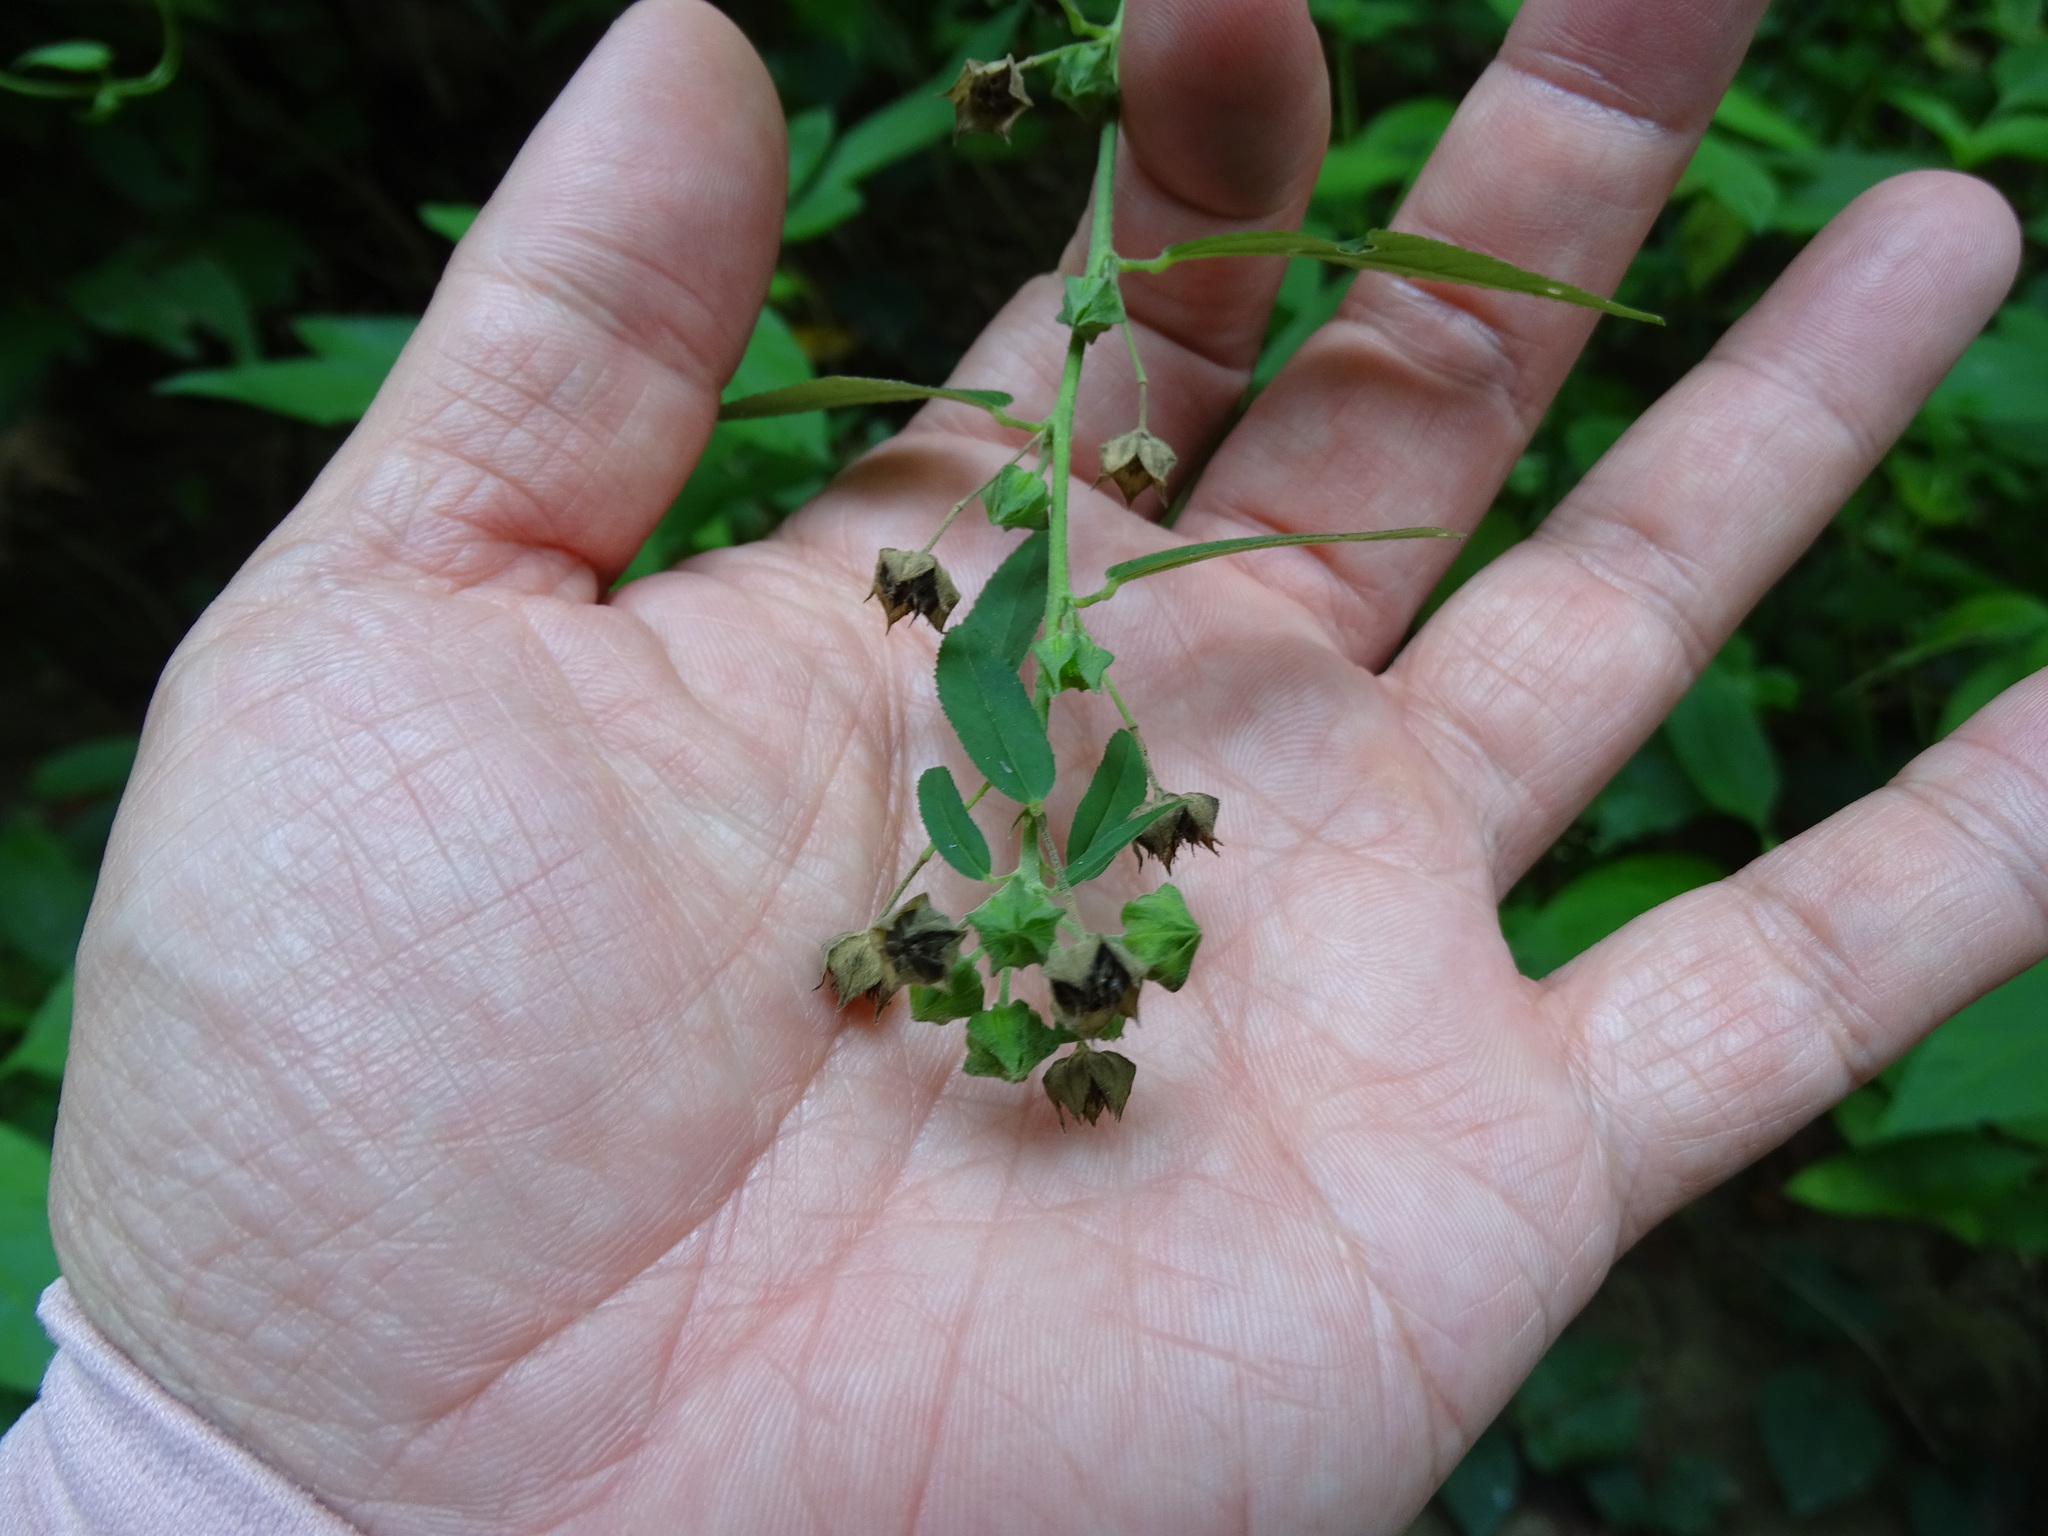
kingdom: Plantae
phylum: Tracheophyta
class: Magnoliopsida
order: Malvales
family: Malvaceae
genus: Sida
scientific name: Sida rhombifolia
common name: Queensland-hemp
